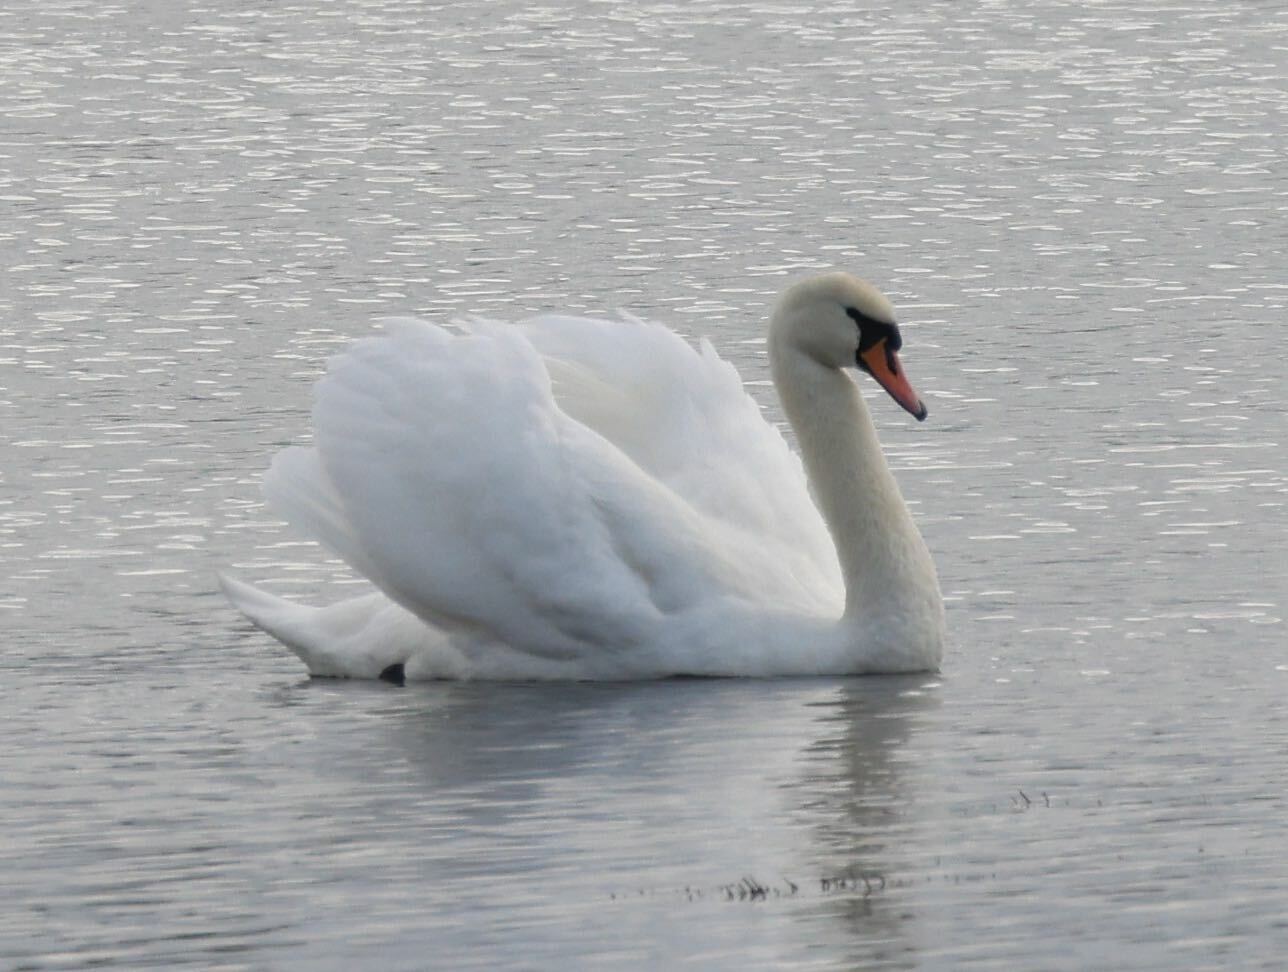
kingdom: Animalia
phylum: Chordata
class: Aves
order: Anseriformes
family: Anatidae
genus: Cygnus
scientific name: Cygnus olor
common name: Mute swan
